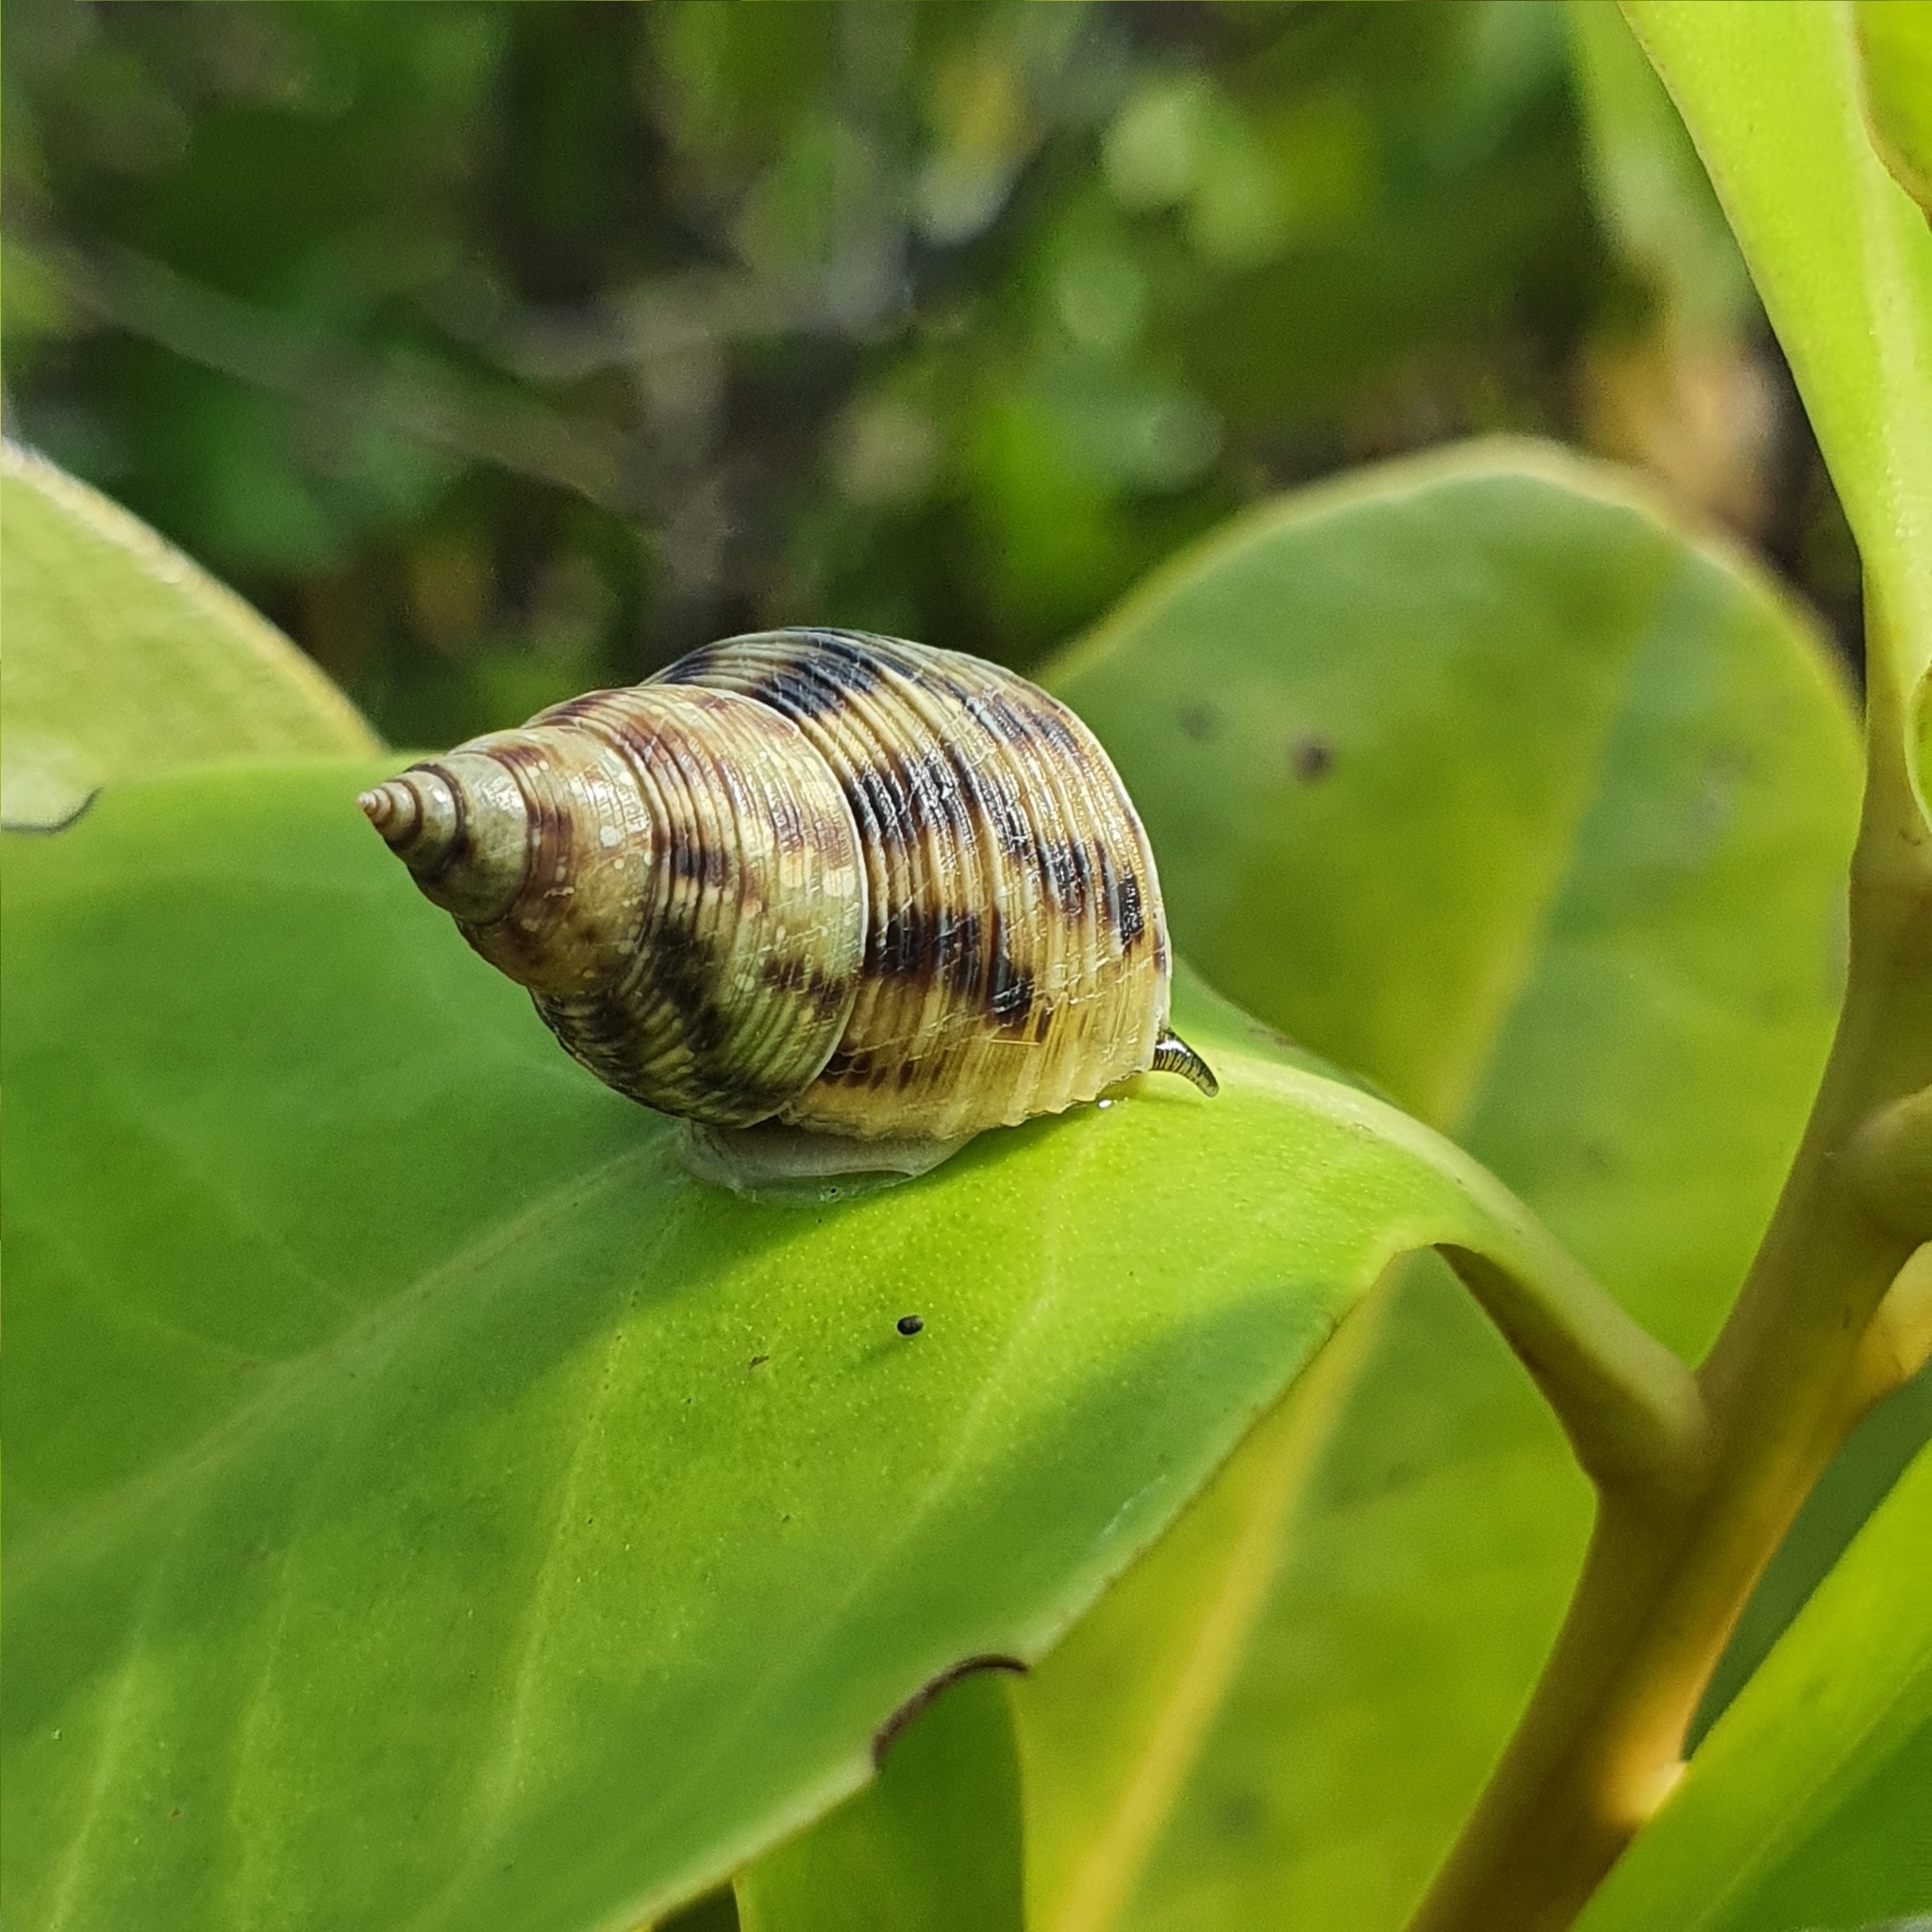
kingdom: Animalia
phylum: Mollusca
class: Gastropoda
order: Littorinimorpha
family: Littorinidae
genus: Littoraria
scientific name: Littoraria filosa
